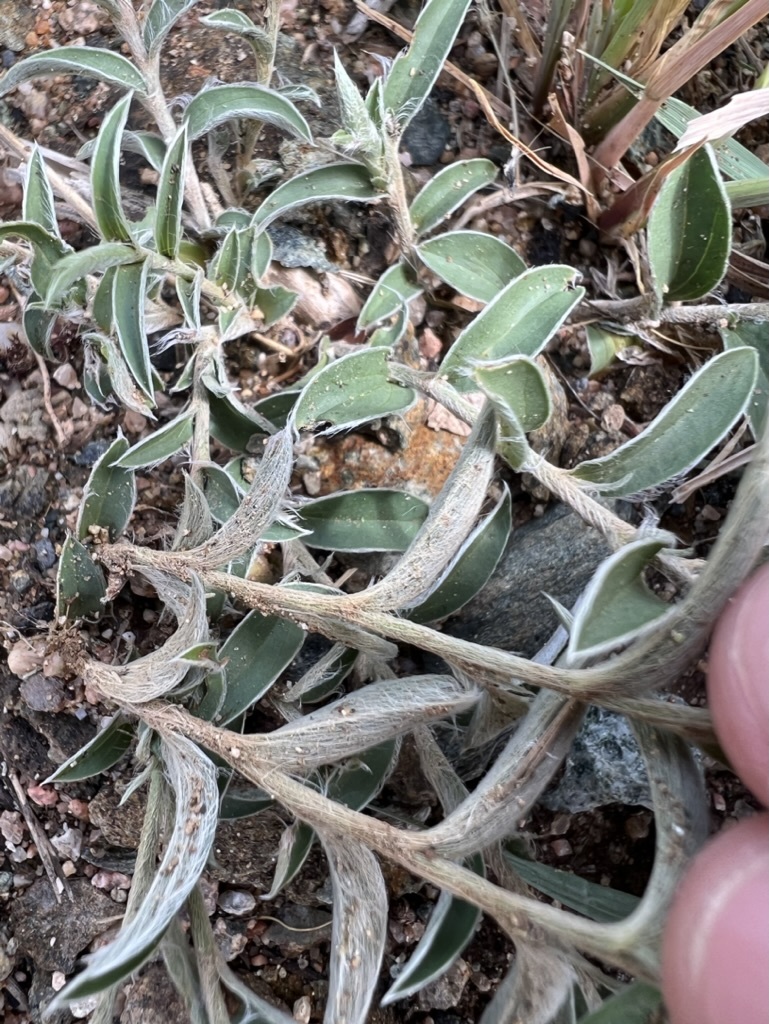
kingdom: Plantae
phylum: Tracheophyta
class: Magnoliopsida
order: Solanales
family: Convolvulaceae
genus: Evolvulus
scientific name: Evolvulus sericeus
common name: Blue dots
